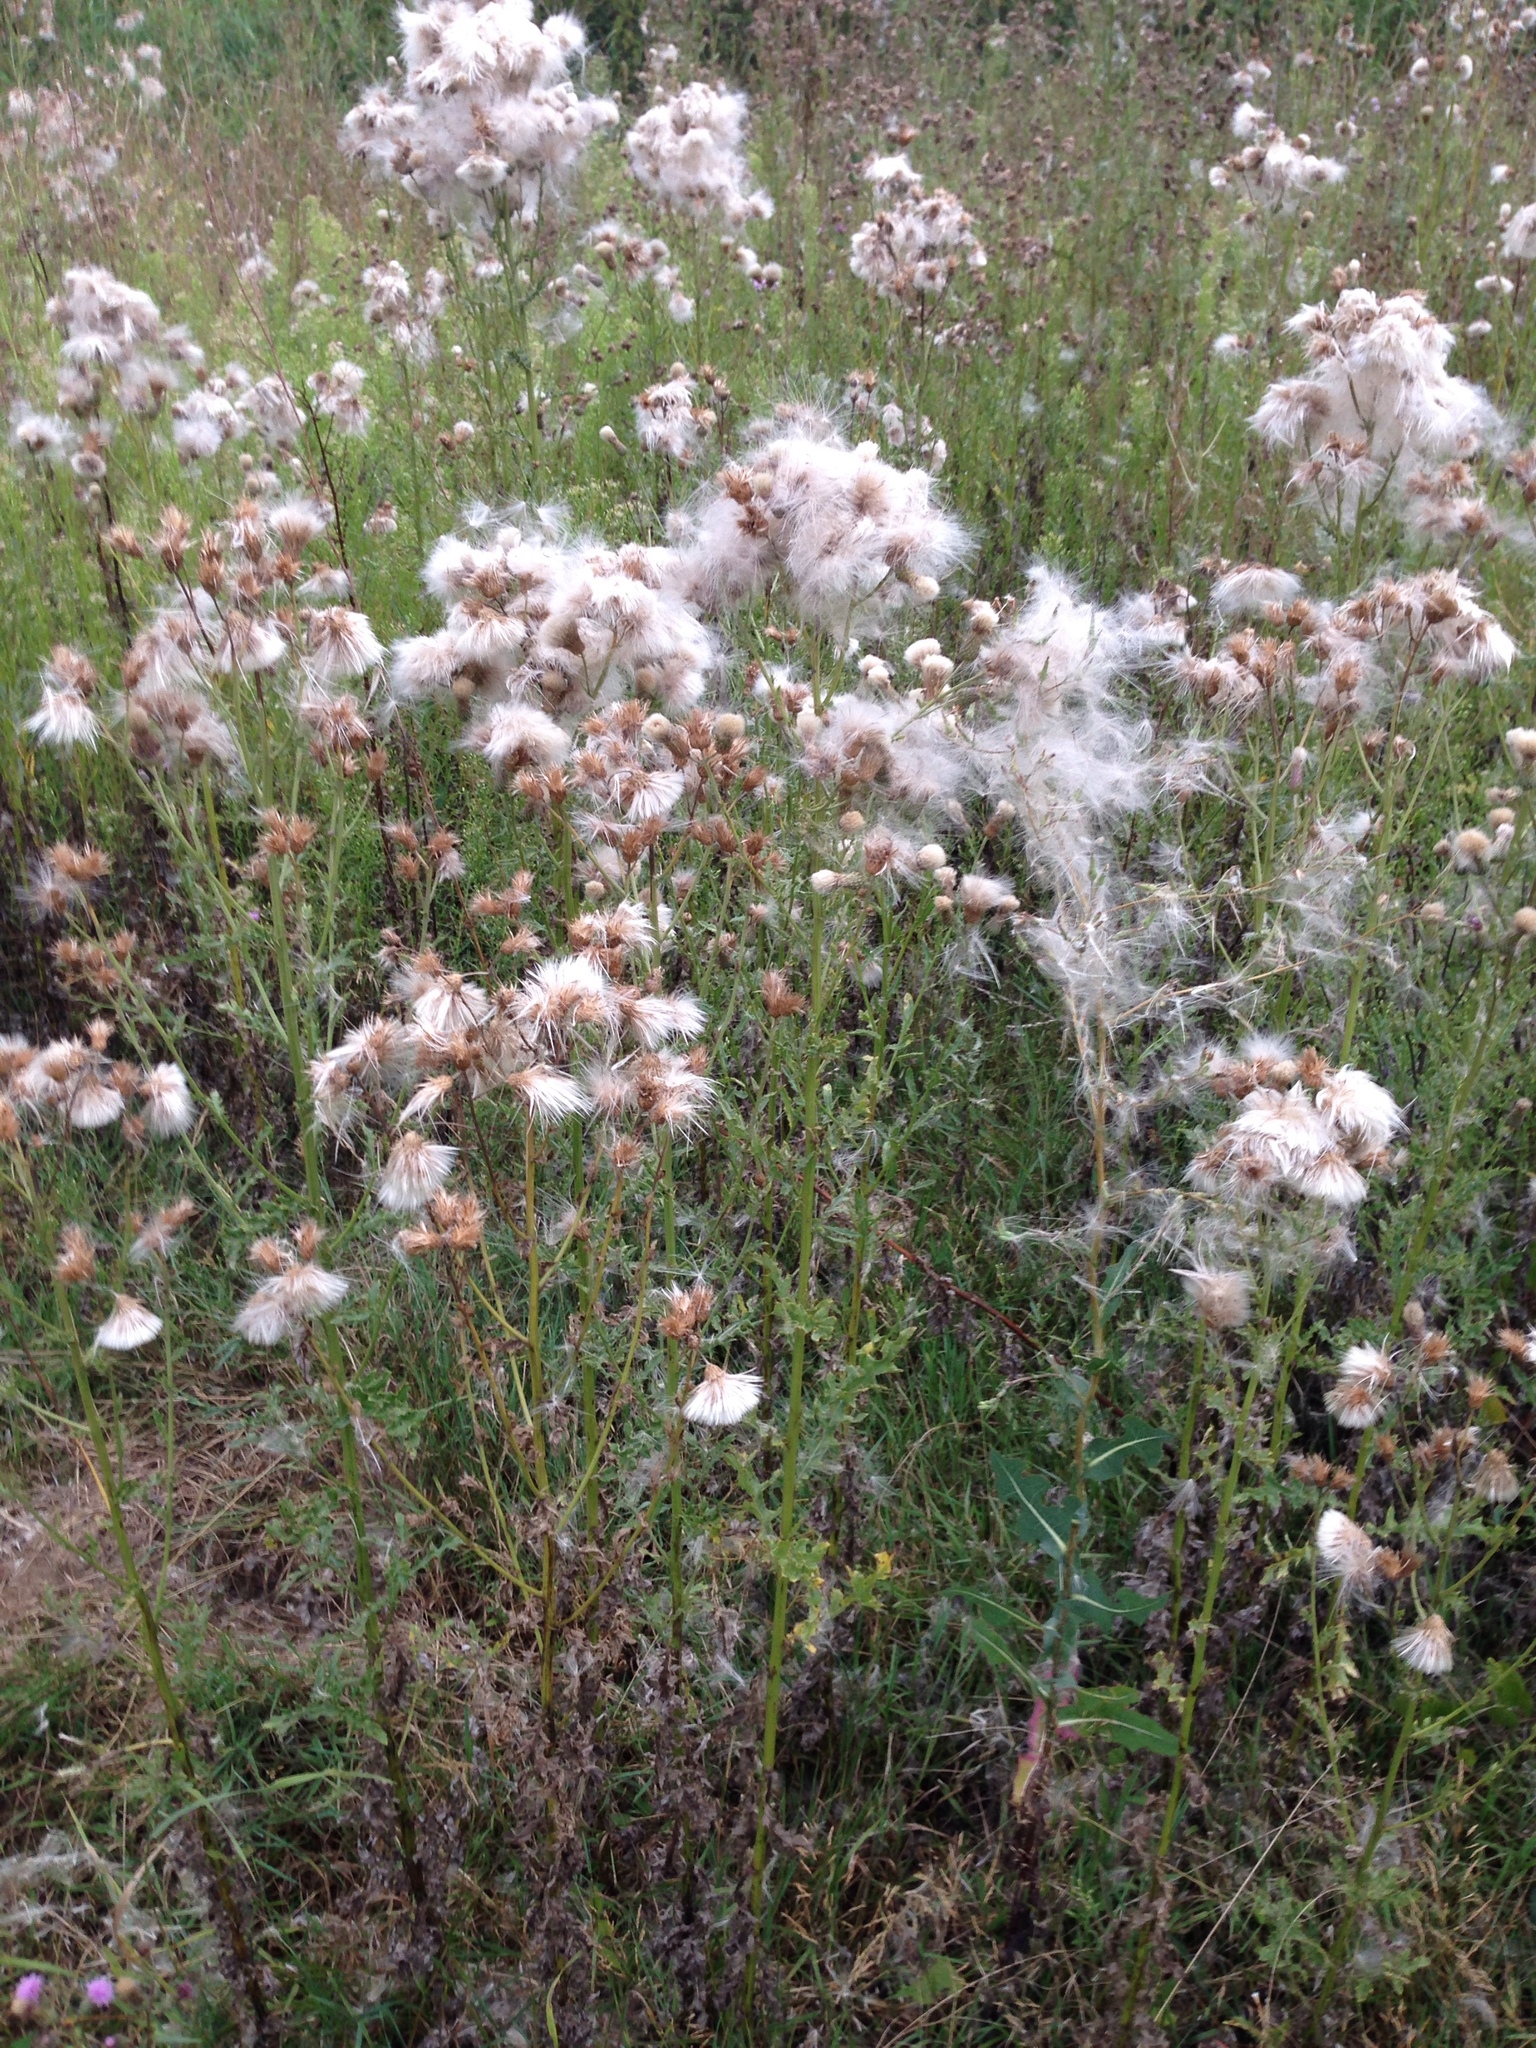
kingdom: Plantae
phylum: Tracheophyta
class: Magnoliopsida
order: Asterales
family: Asteraceae
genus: Cirsium
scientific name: Cirsium arvense
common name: Creeping thistle
